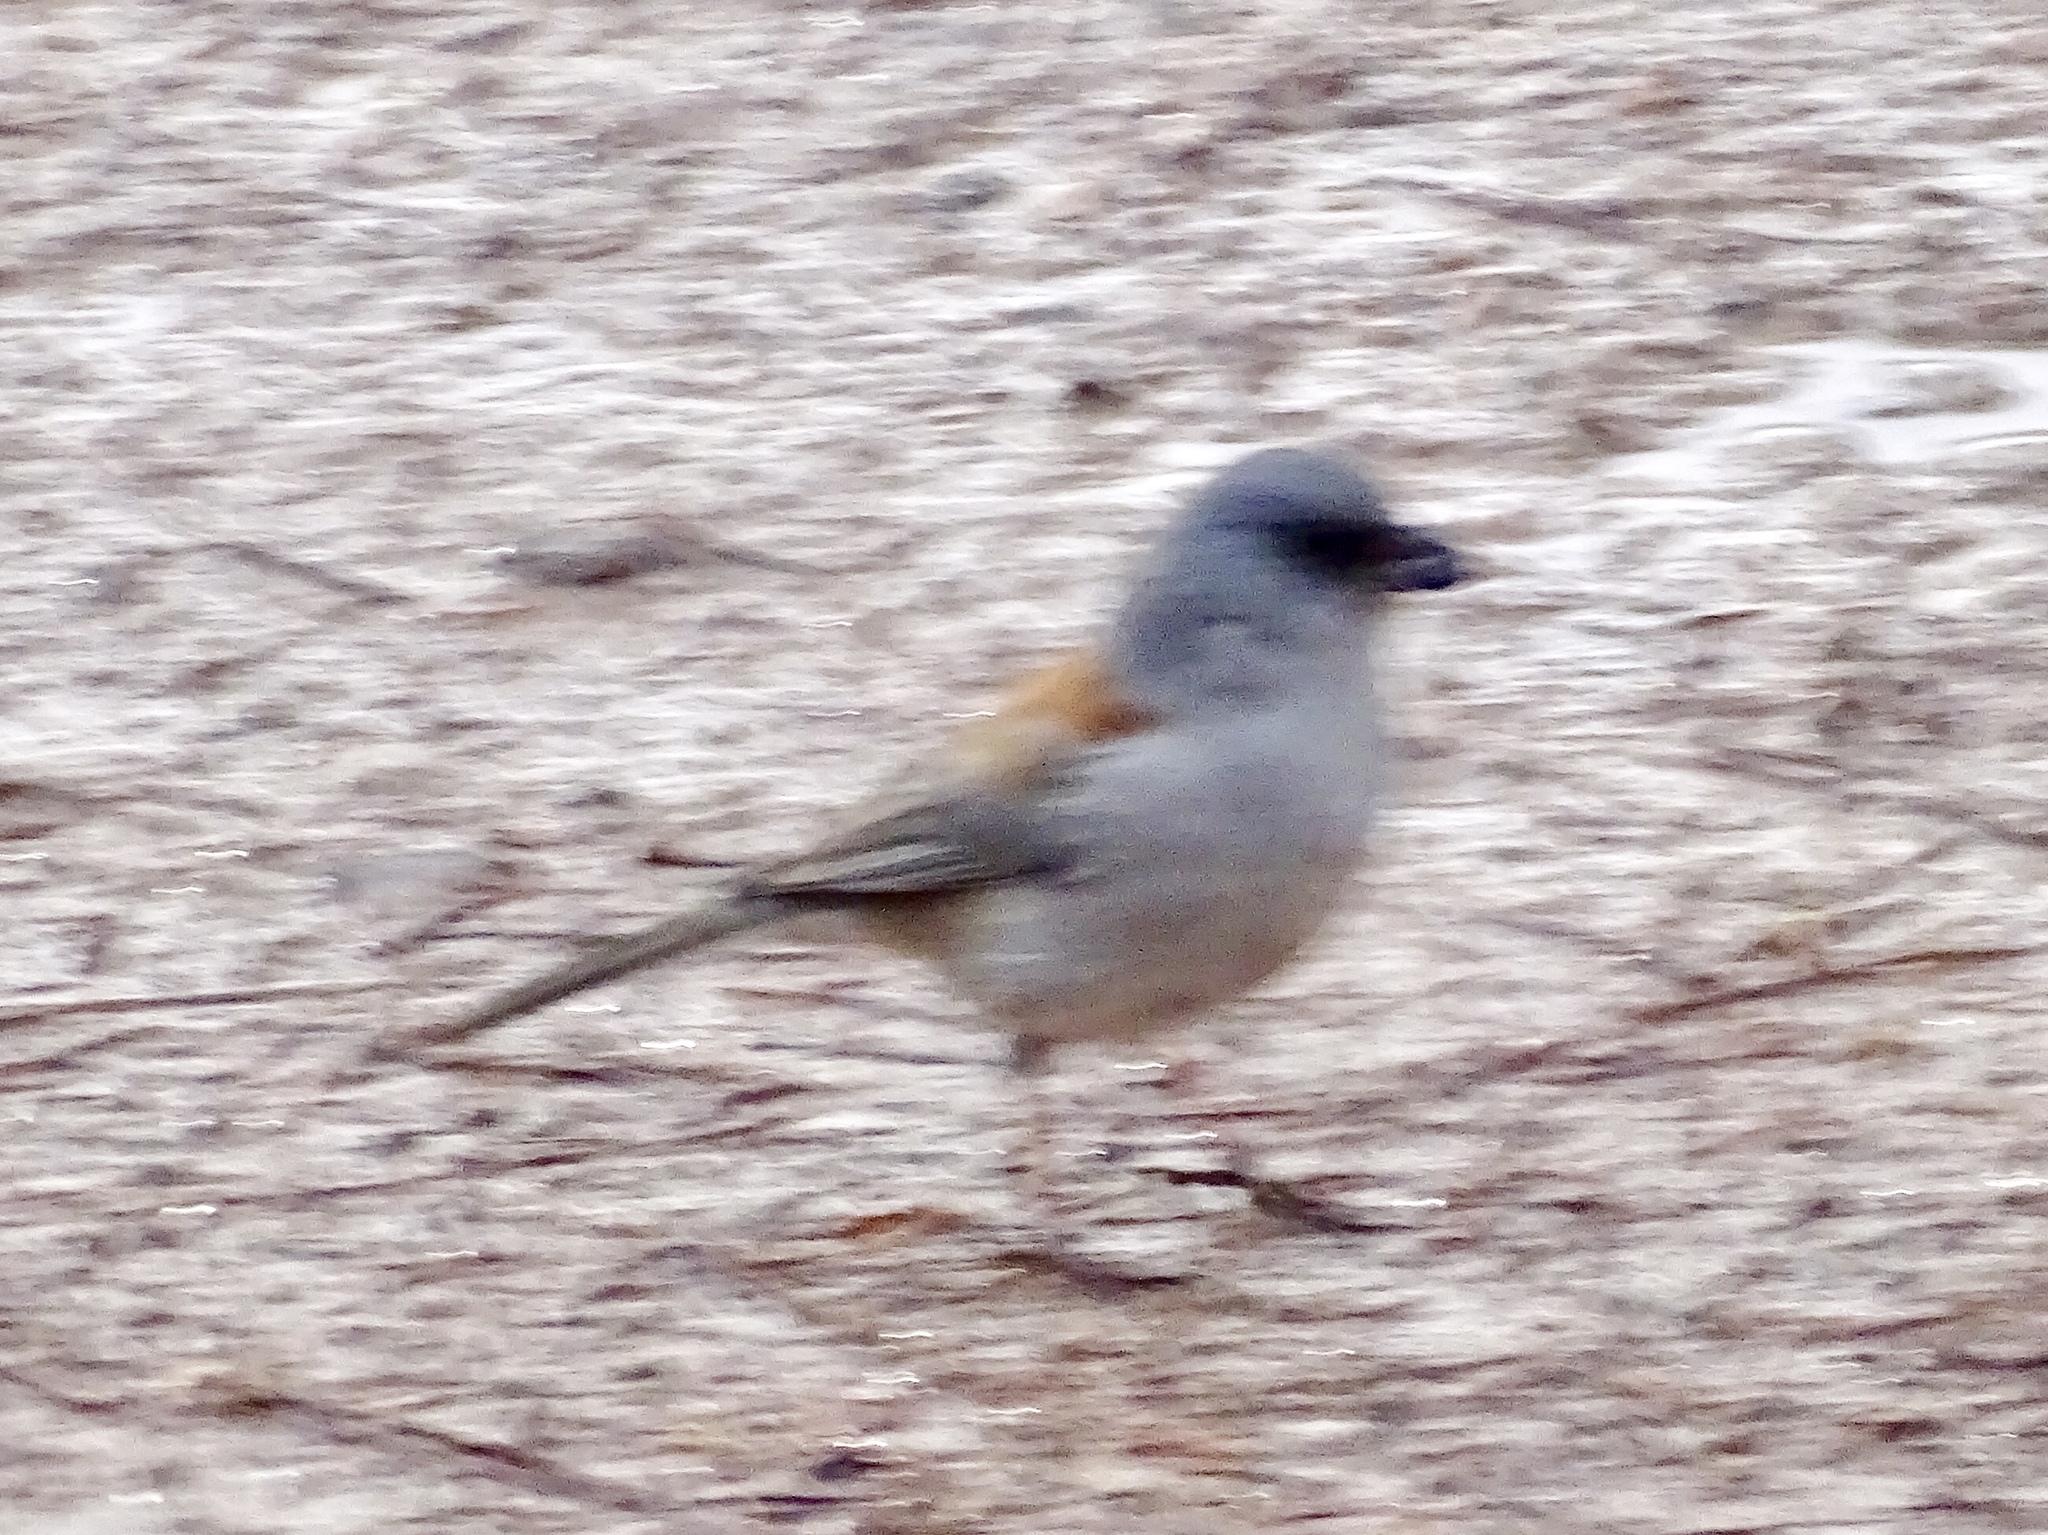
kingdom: Animalia
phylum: Chordata
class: Aves
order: Passeriformes
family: Passerellidae
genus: Junco
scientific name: Junco hyemalis
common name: Dark-eyed junco
